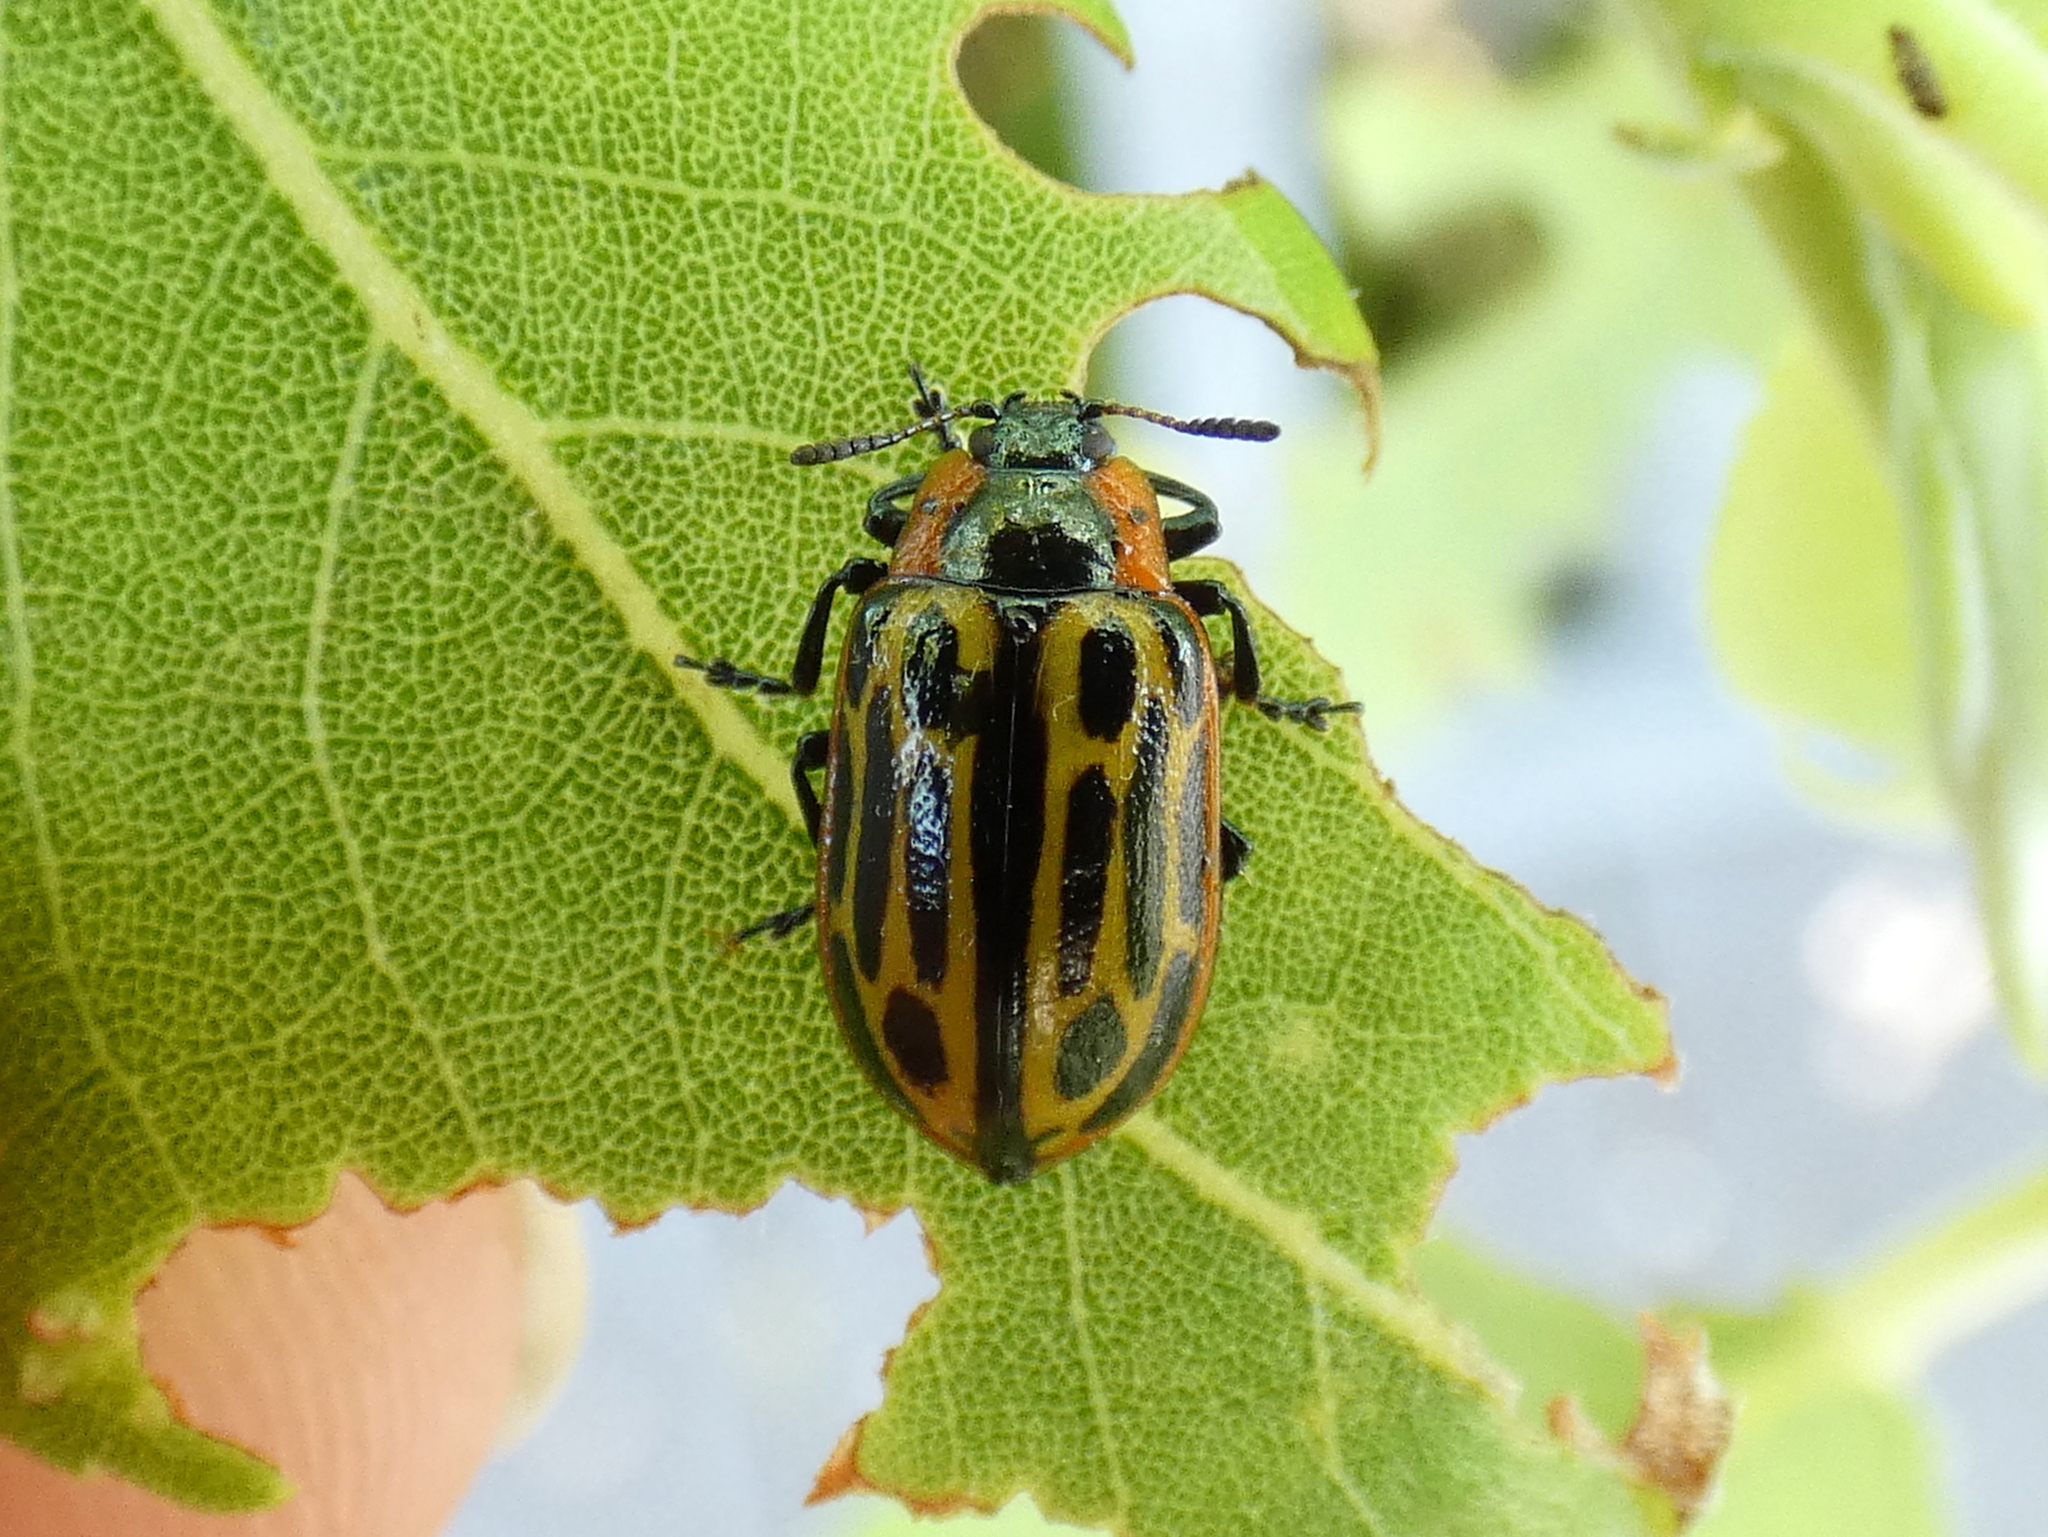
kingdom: Animalia
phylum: Arthropoda
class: Insecta
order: Coleoptera
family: Chrysomelidae
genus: Aethiopocassis
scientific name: Aethiopocassis scripta
